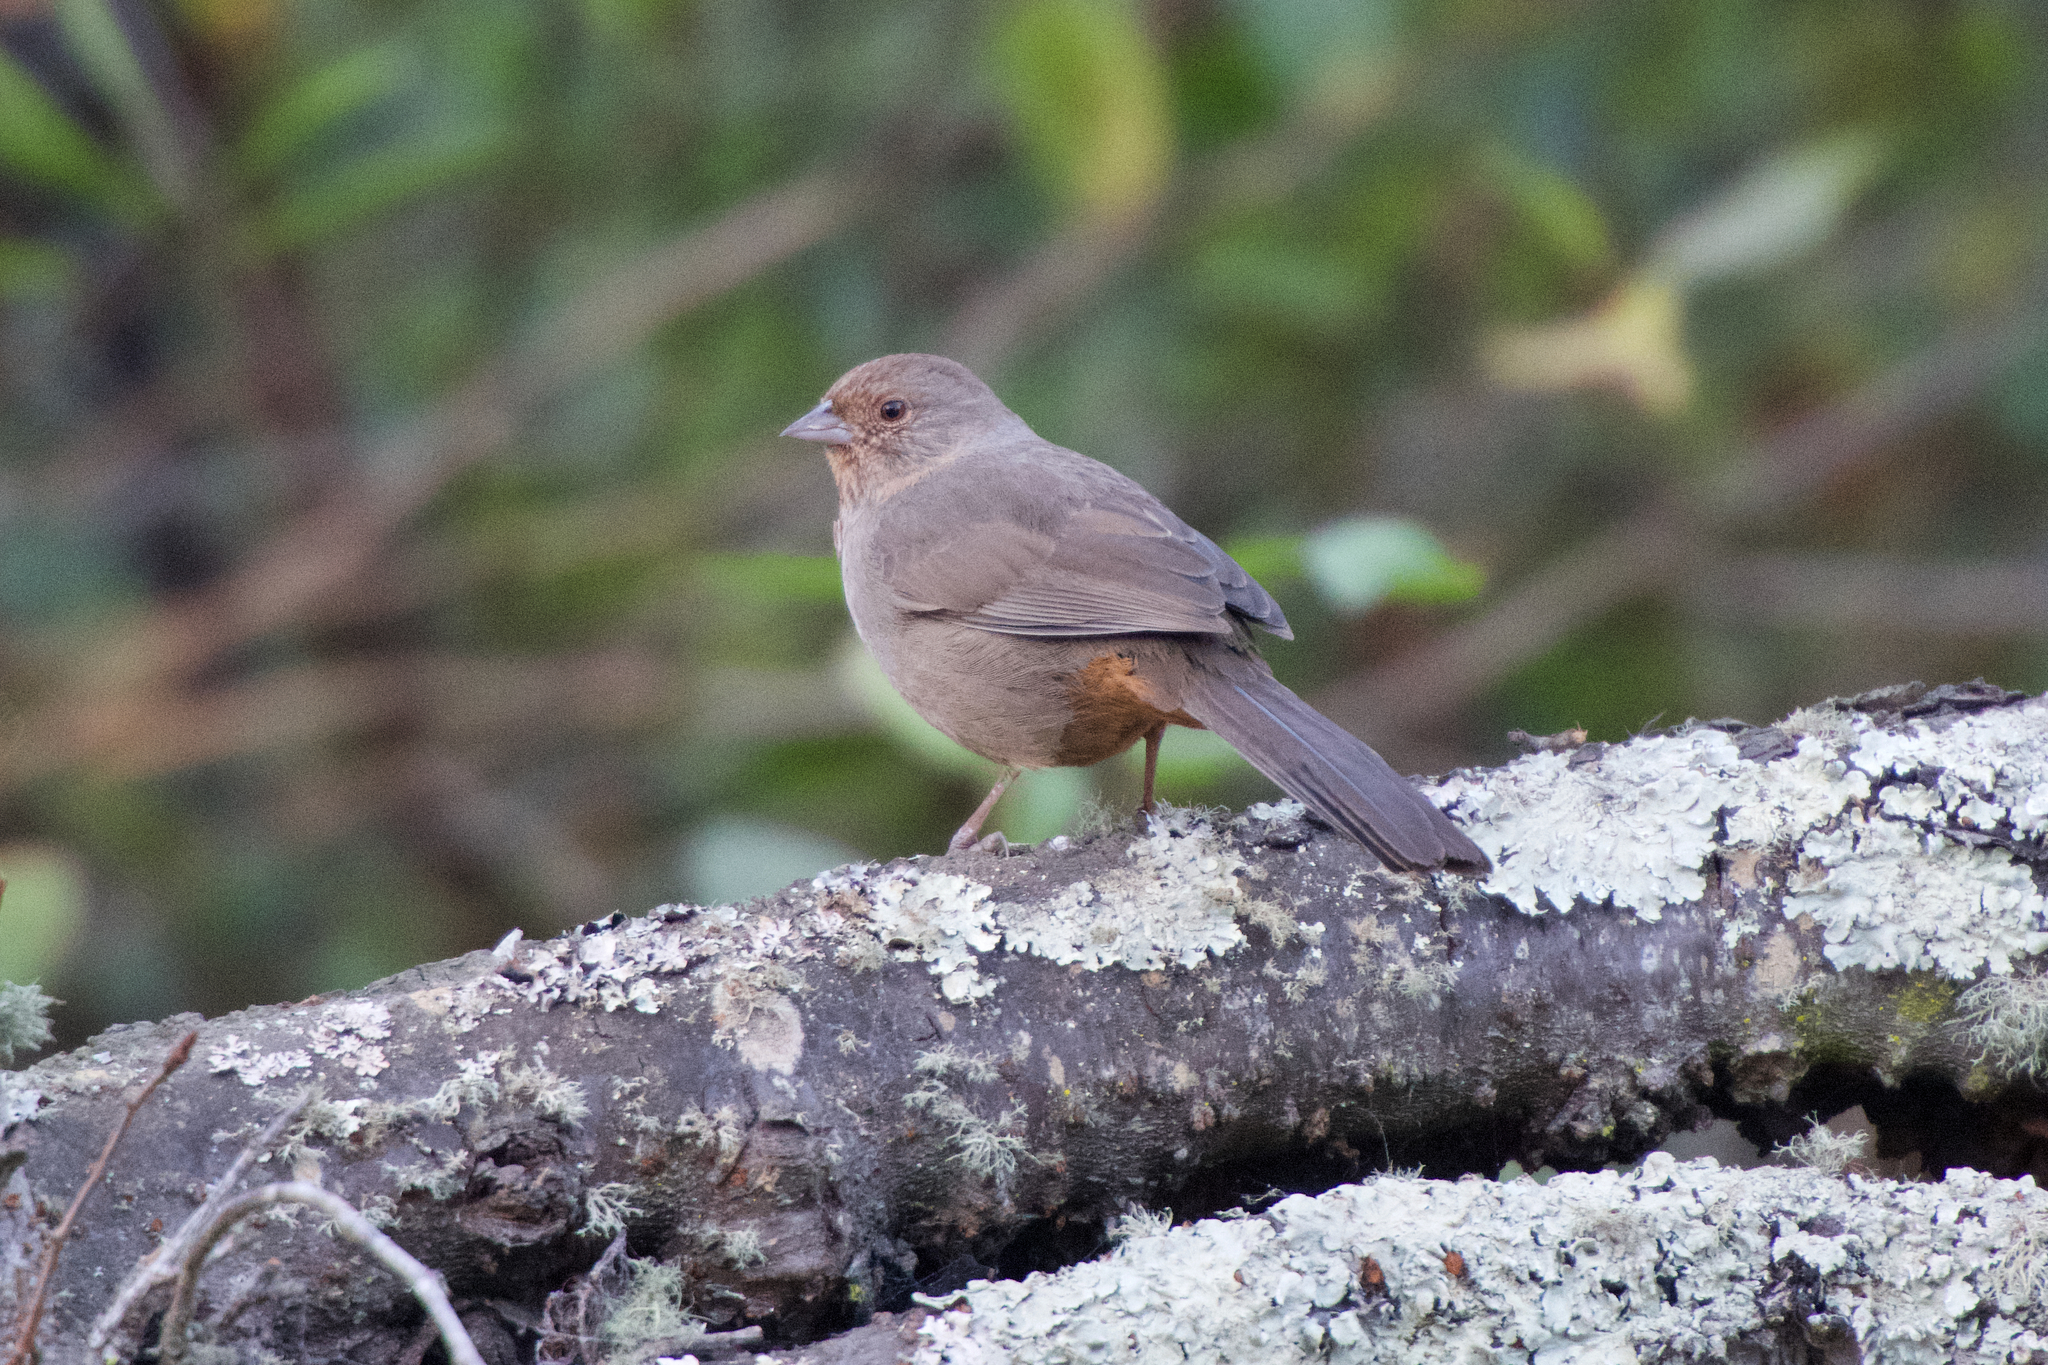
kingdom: Animalia
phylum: Chordata
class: Aves
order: Passeriformes
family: Passerellidae
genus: Melozone
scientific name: Melozone crissalis
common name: California towhee
